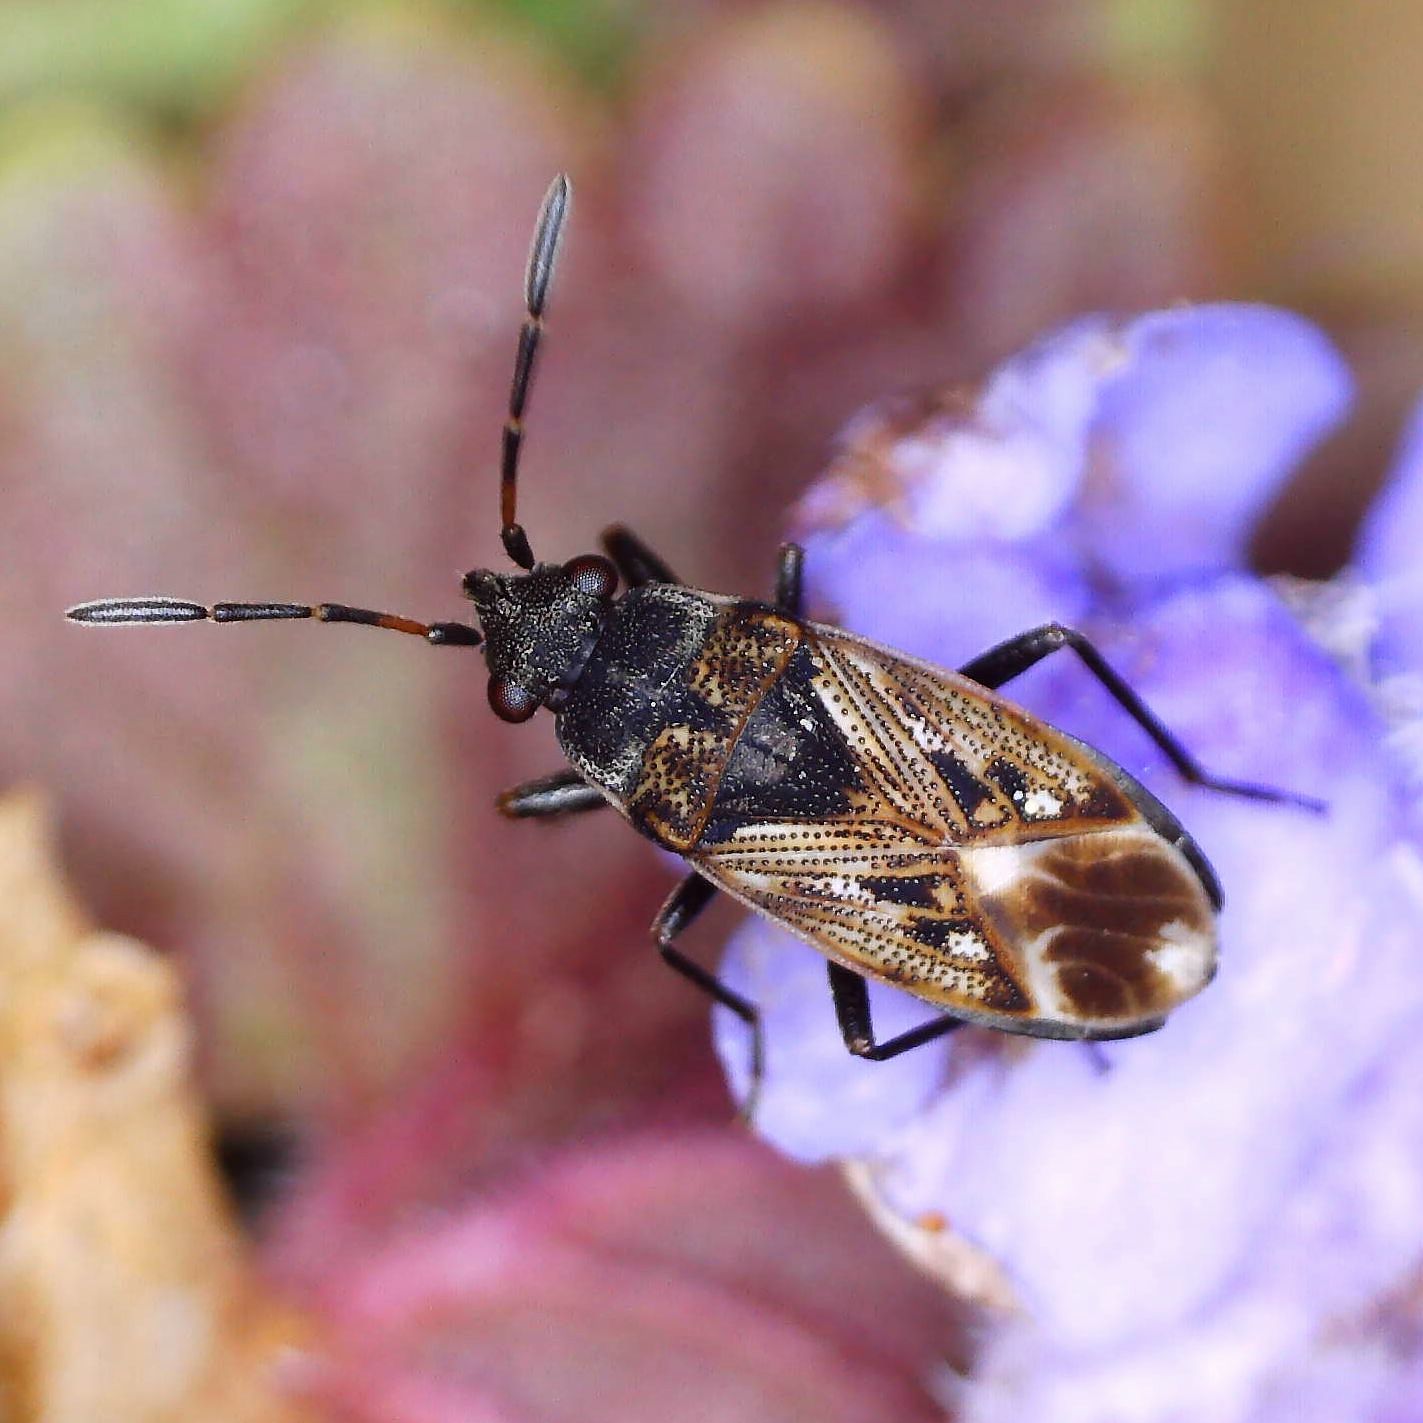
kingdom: Animalia
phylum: Arthropoda
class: Insecta
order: Hemiptera
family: Rhyparochromidae
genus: Peritrechus
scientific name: Peritrechus lundi
